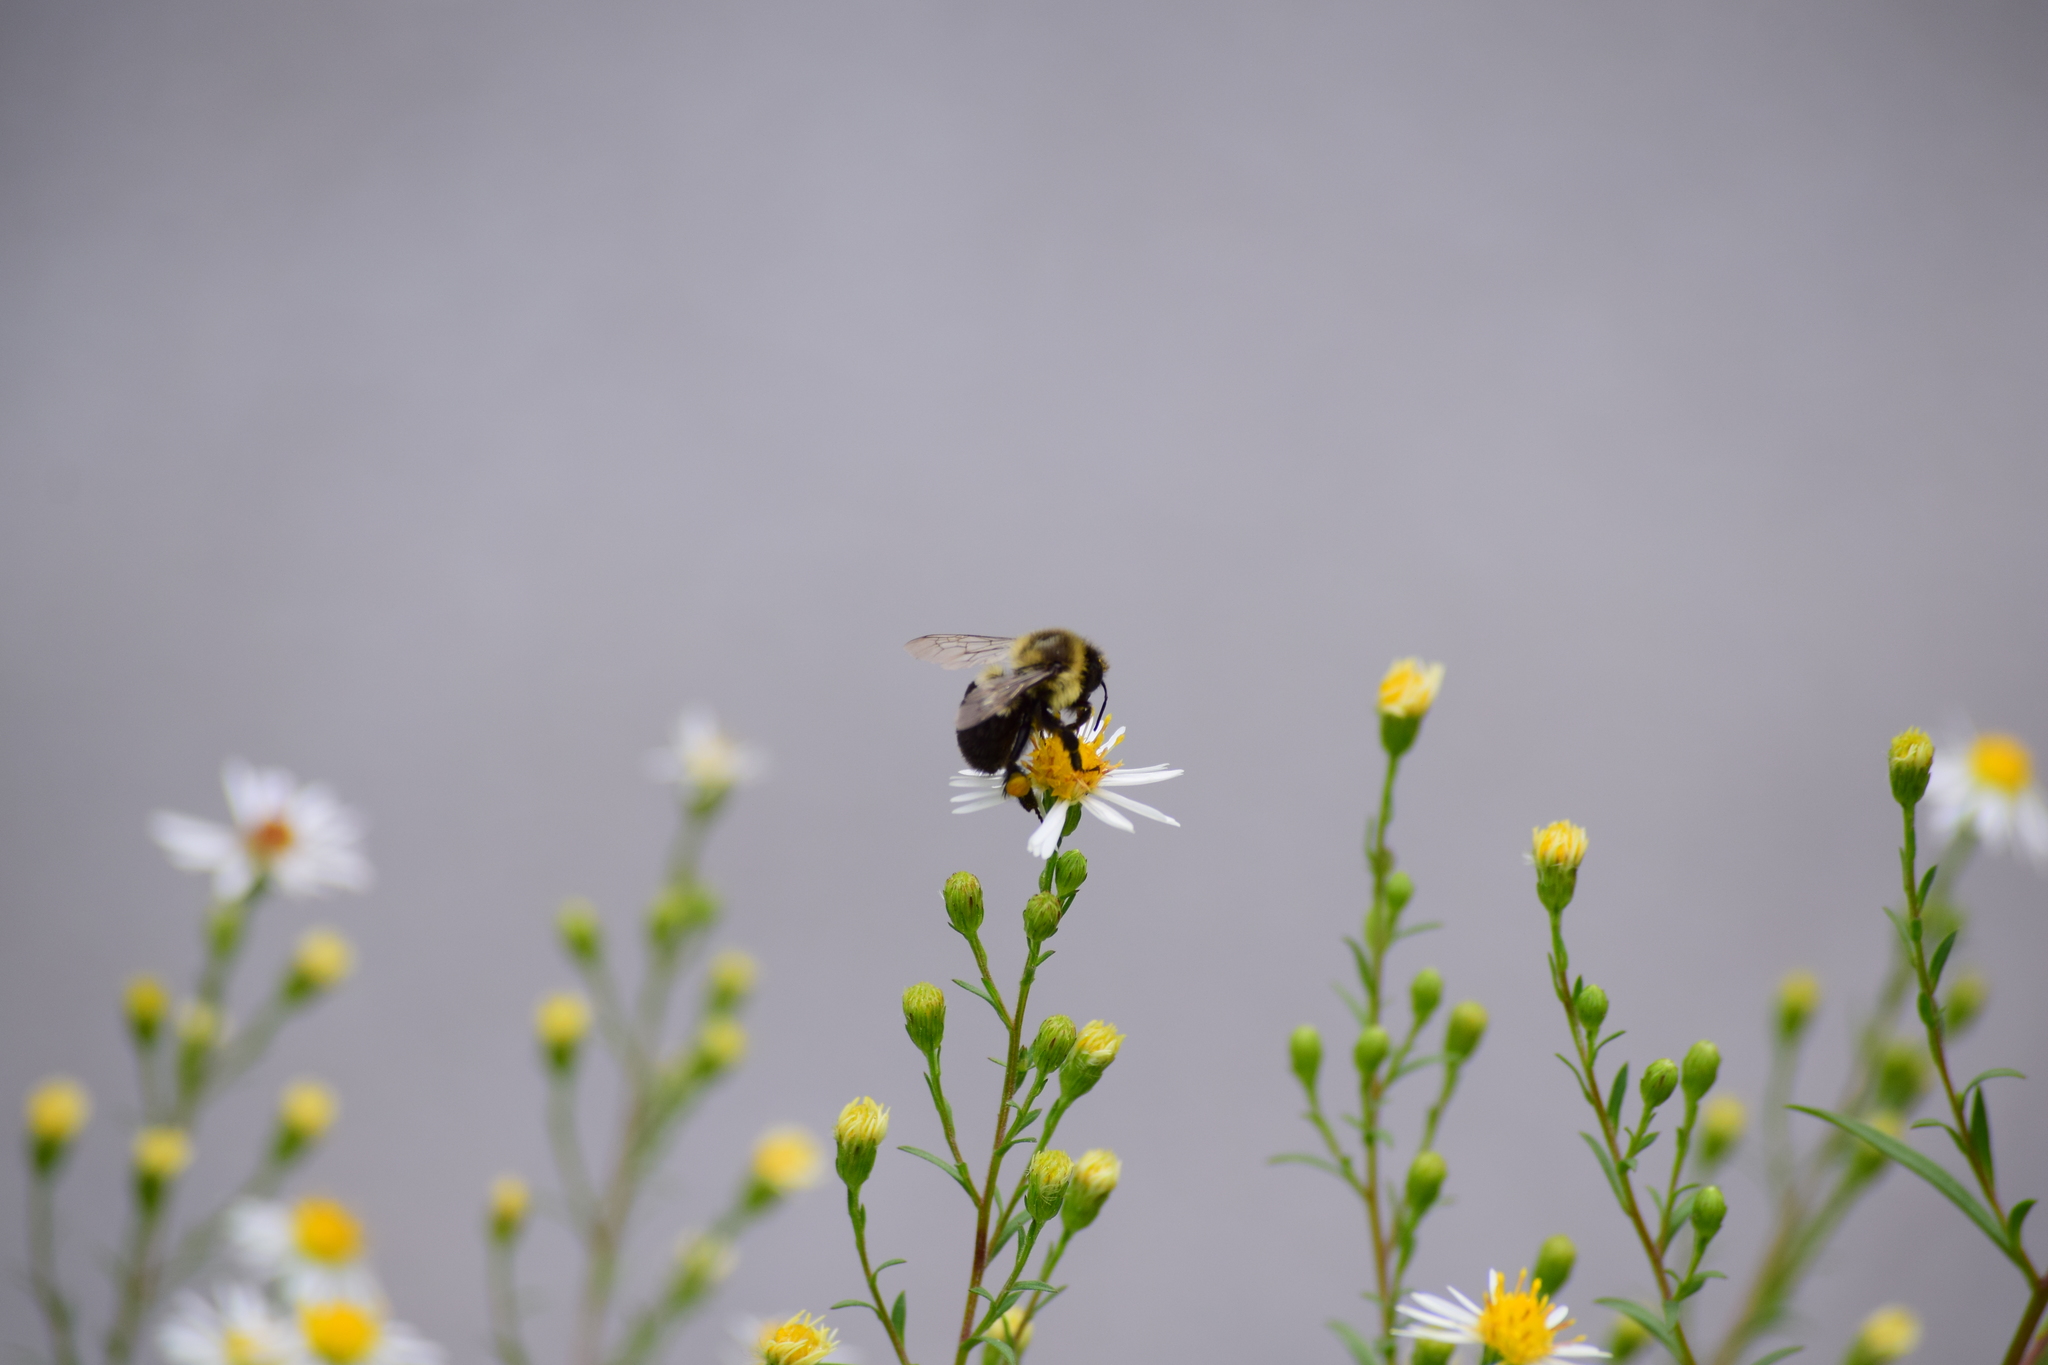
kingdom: Animalia
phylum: Arthropoda
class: Insecta
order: Hymenoptera
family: Apidae
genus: Bombus
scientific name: Bombus impatiens
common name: Common eastern bumble bee
